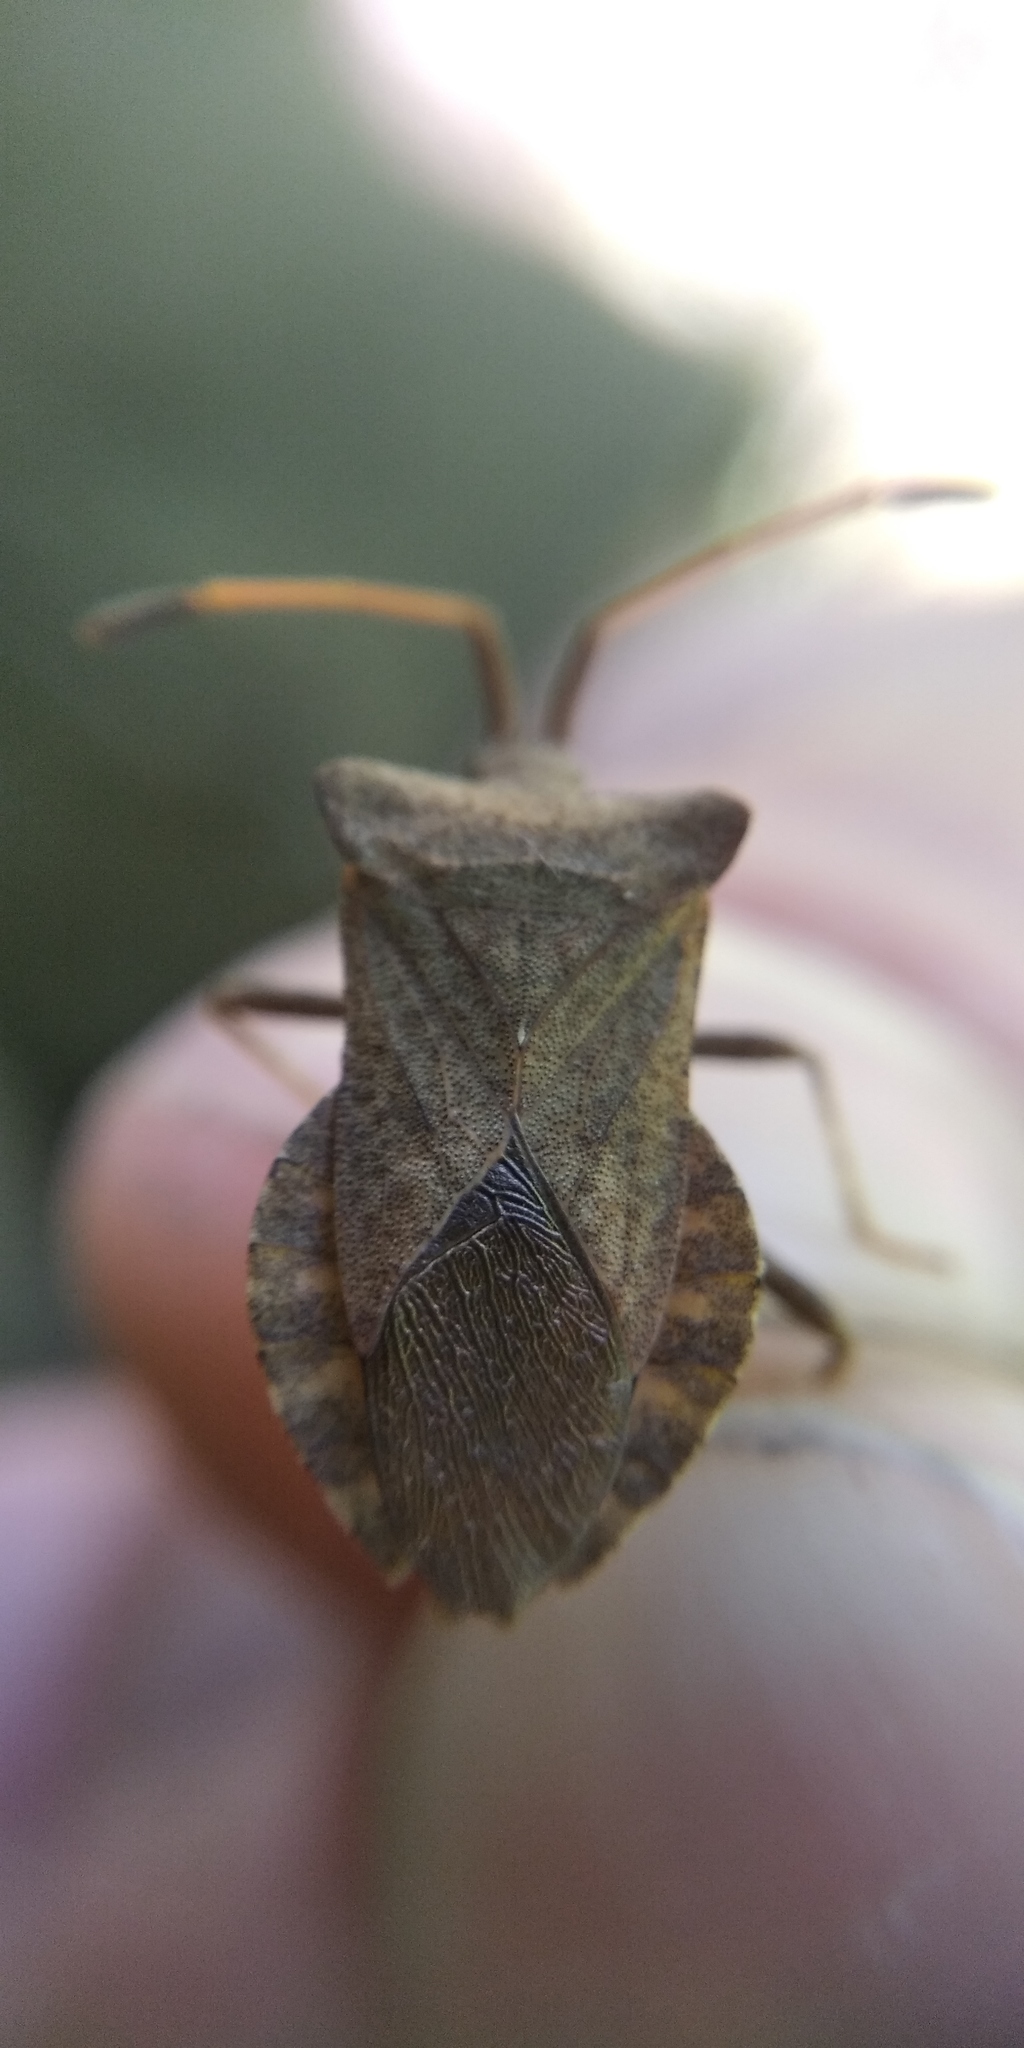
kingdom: Animalia
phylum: Arthropoda
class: Insecta
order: Hemiptera
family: Coreidae
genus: Coreus
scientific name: Coreus marginatus
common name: Dock bug
